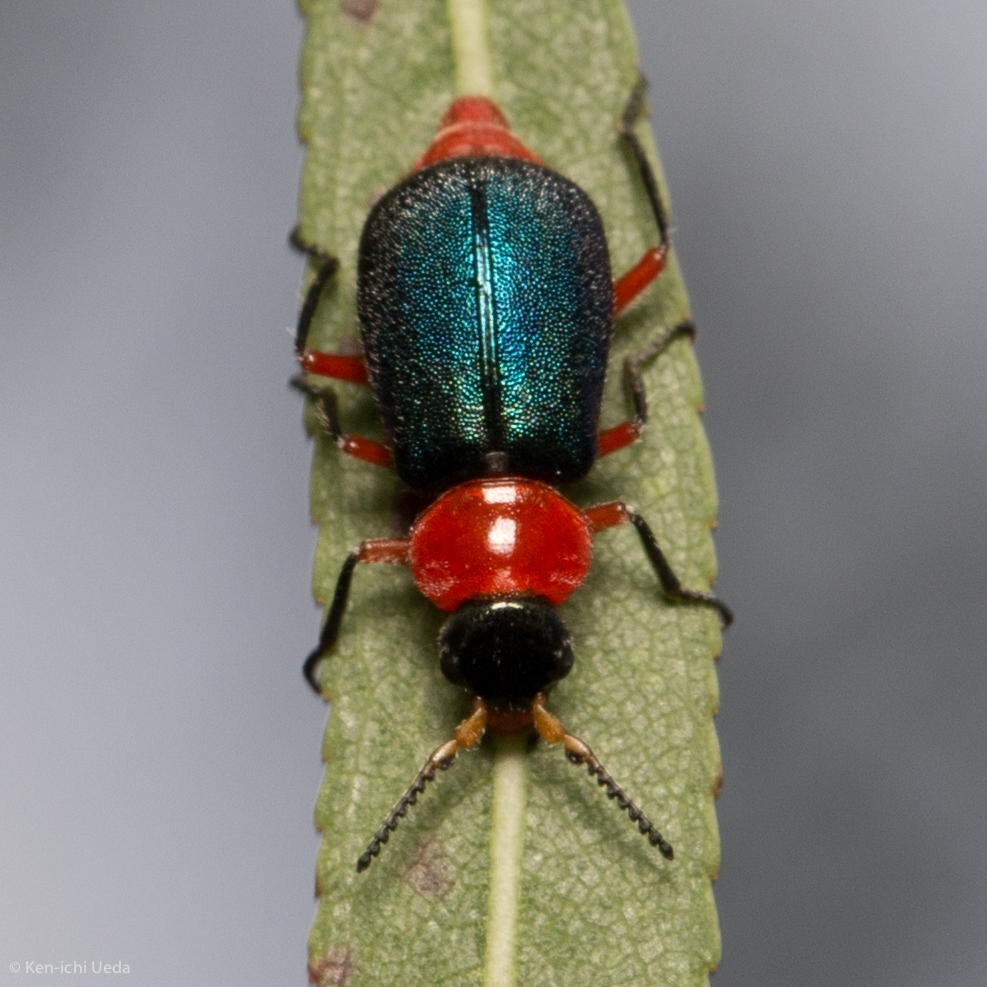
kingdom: Animalia
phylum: Arthropoda
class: Insecta
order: Coleoptera
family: Melyridae
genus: Collops
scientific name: Collops
